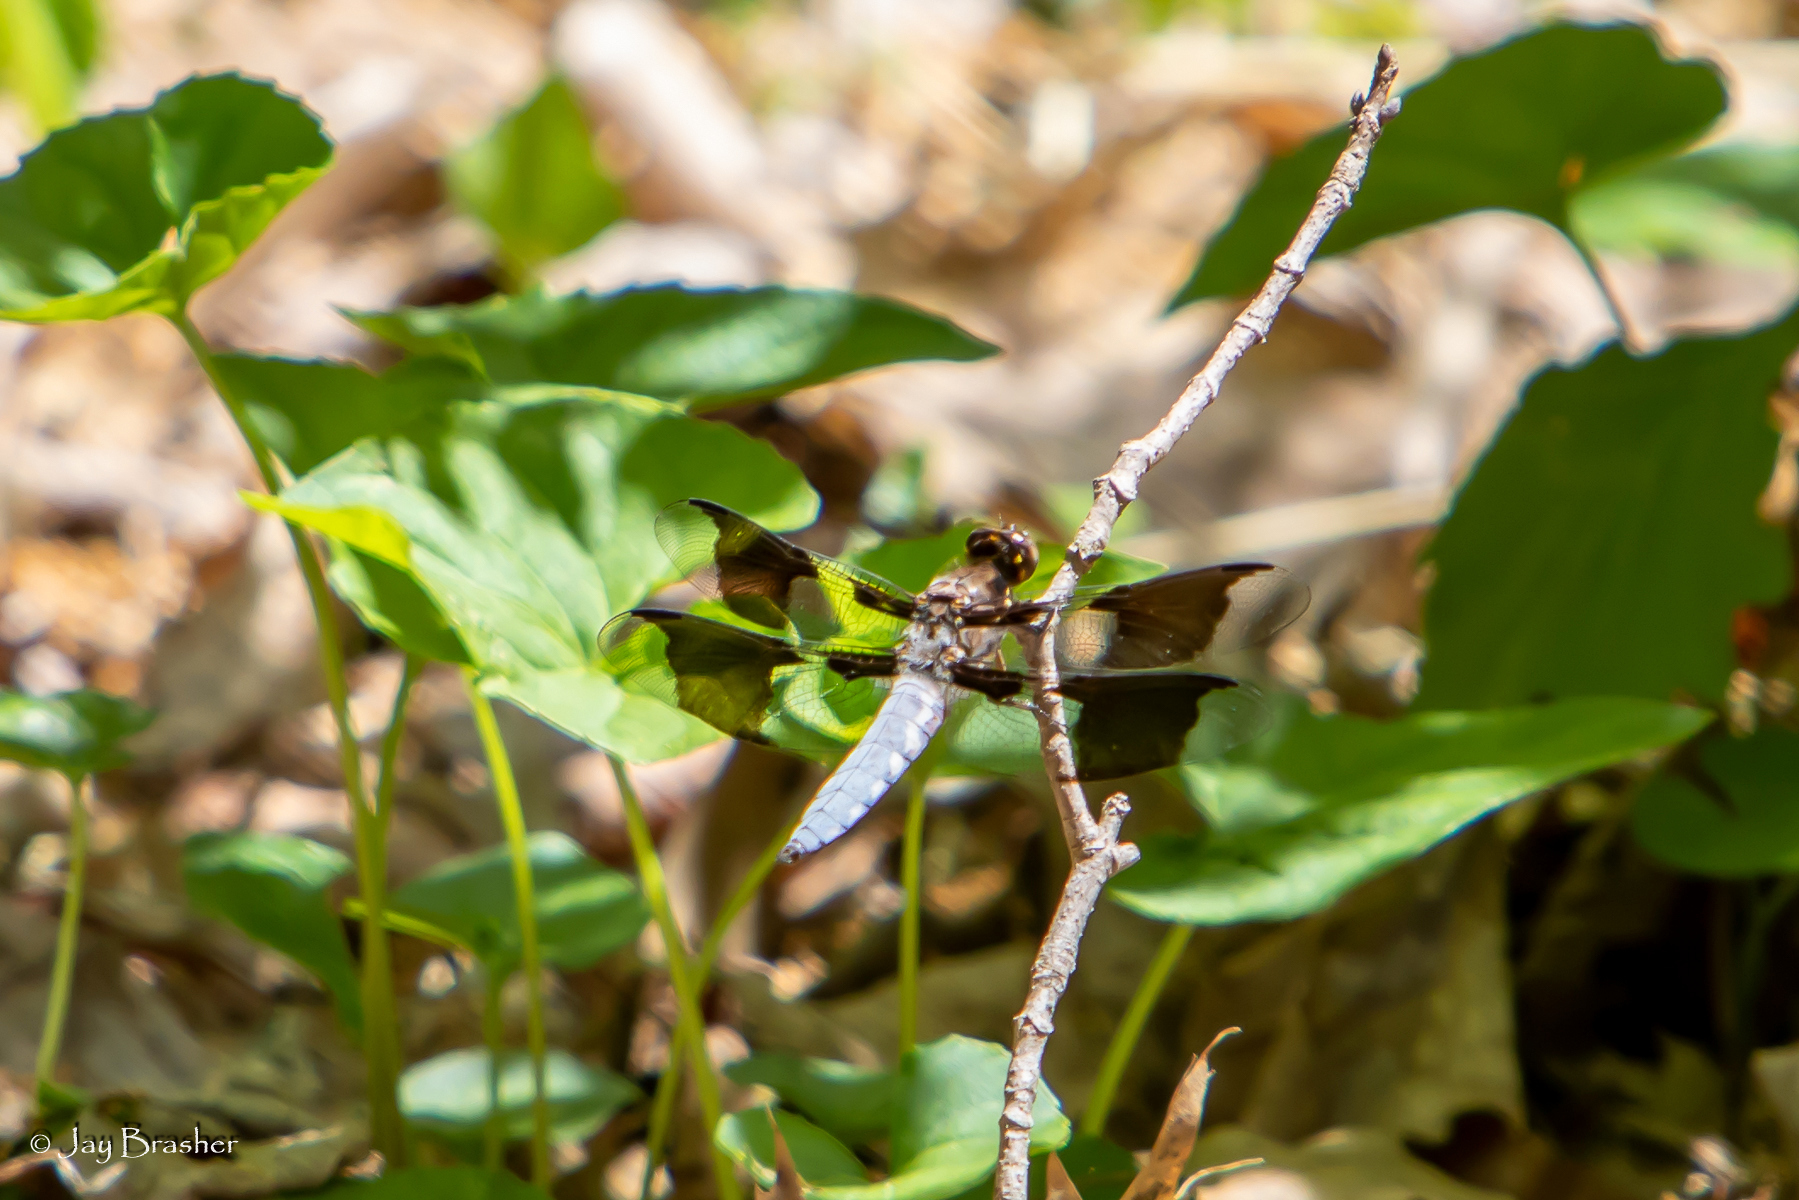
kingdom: Animalia
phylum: Arthropoda
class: Insecta
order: Odonata
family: Libellulidae
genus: Plathemis
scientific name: Plathemis lydia
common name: Common whitetail
